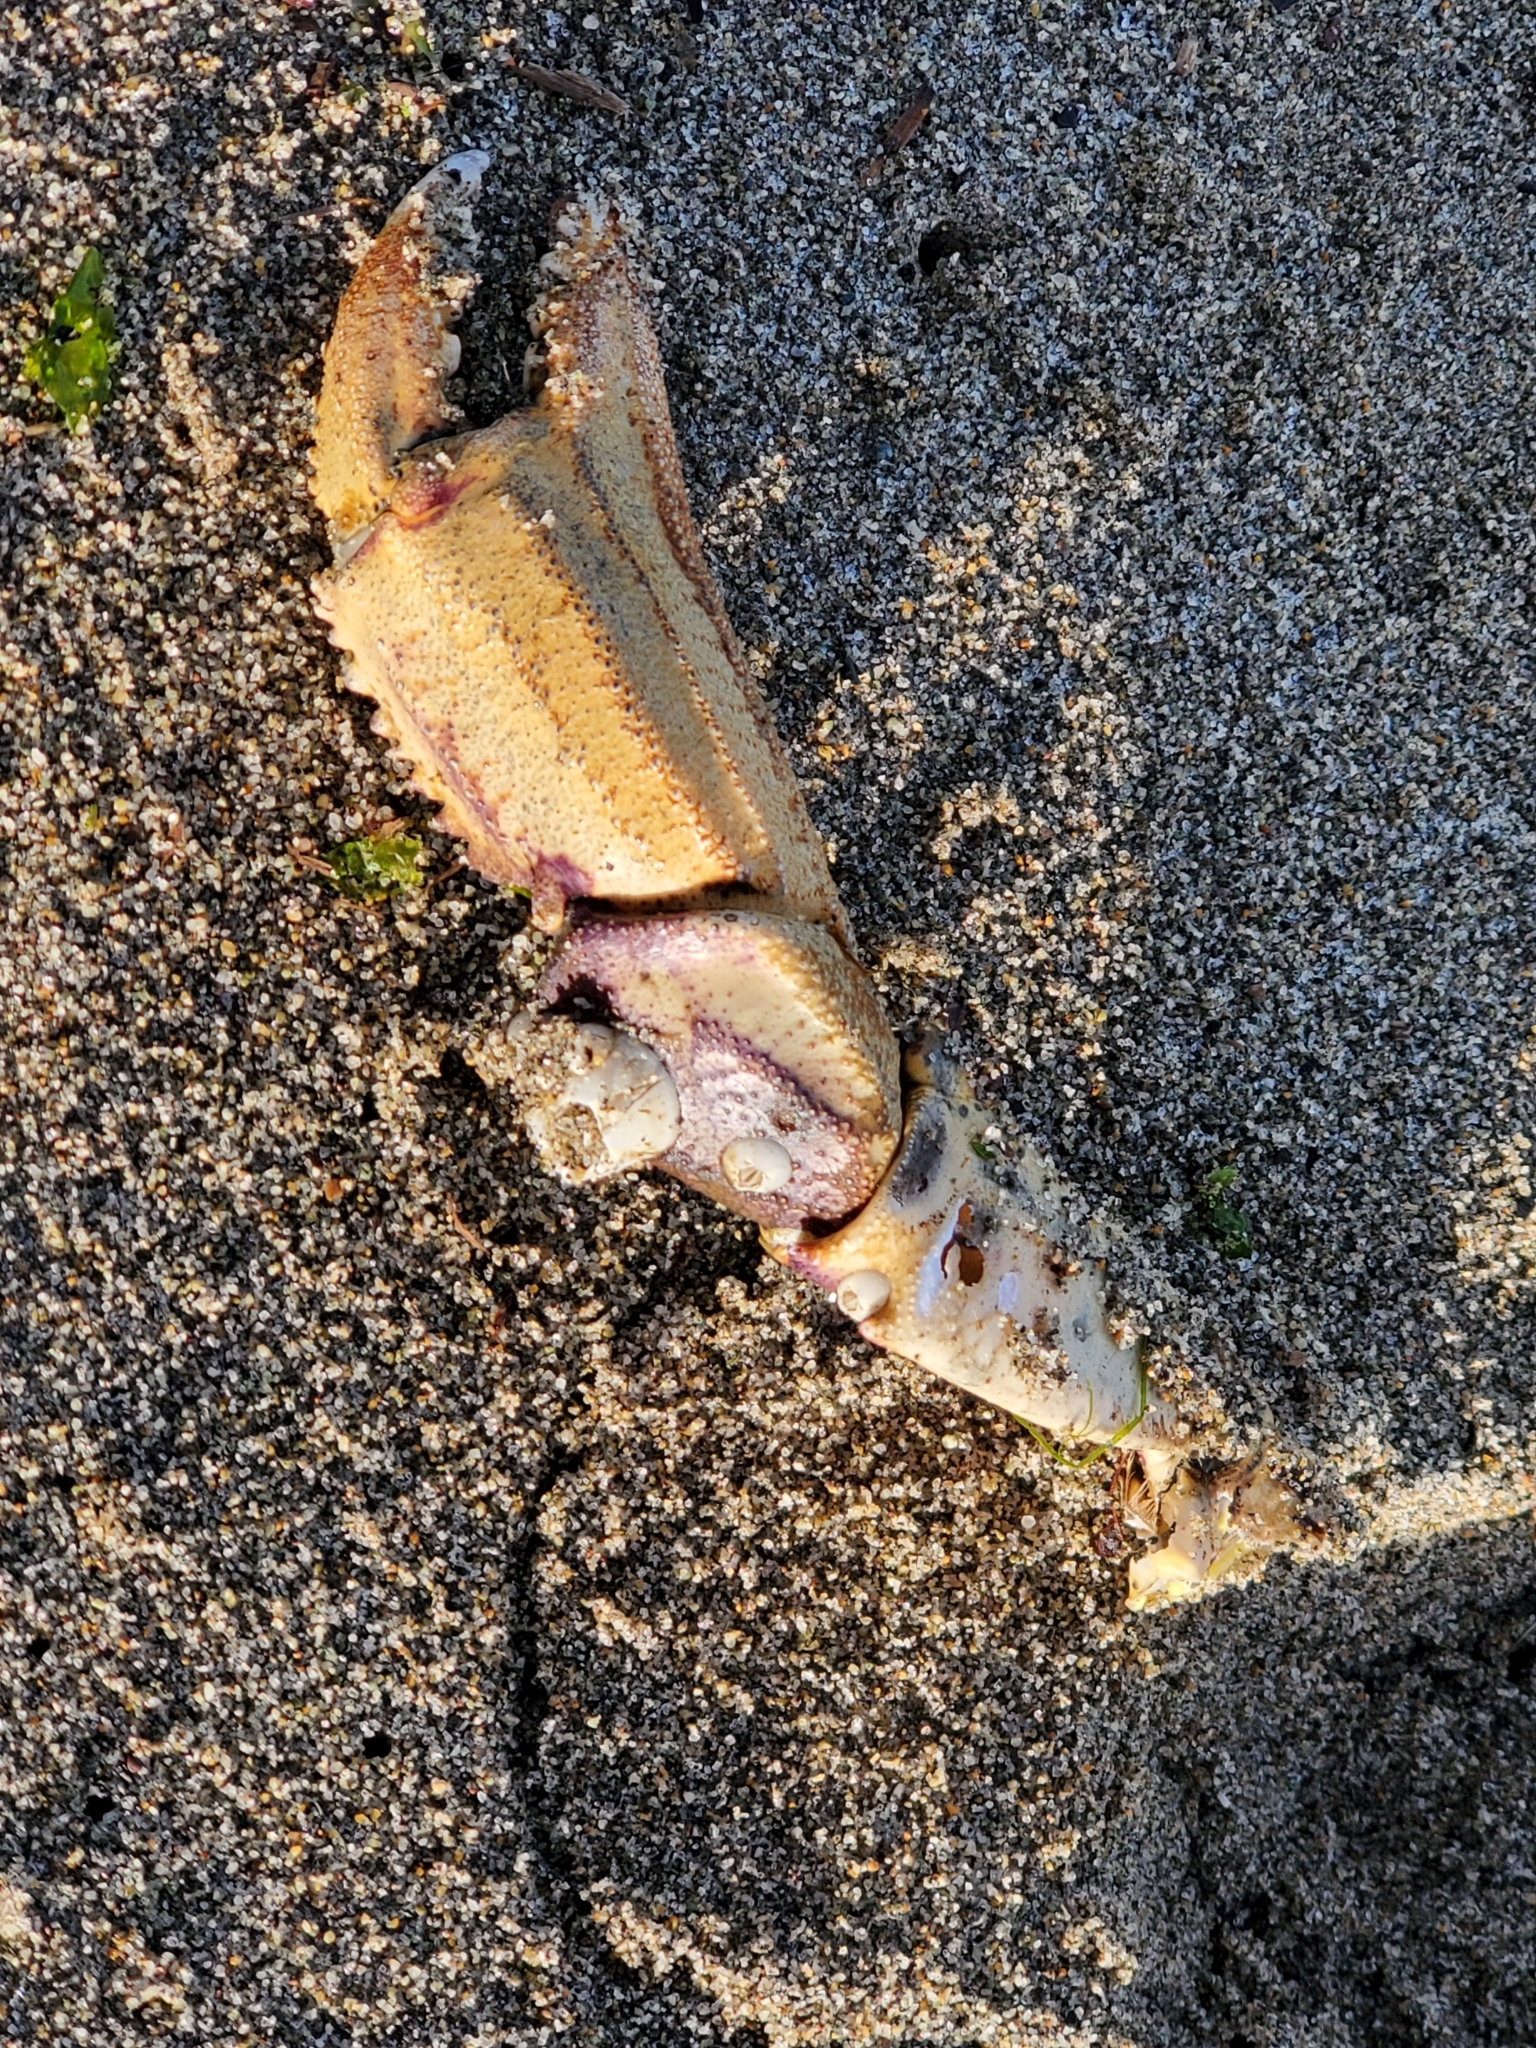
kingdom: Animalia
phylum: Arthropoda
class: Malacostraca
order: Decapoda
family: Cancridae
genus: Metacarcinus
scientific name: Metacarcinus magister
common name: Californian crab
